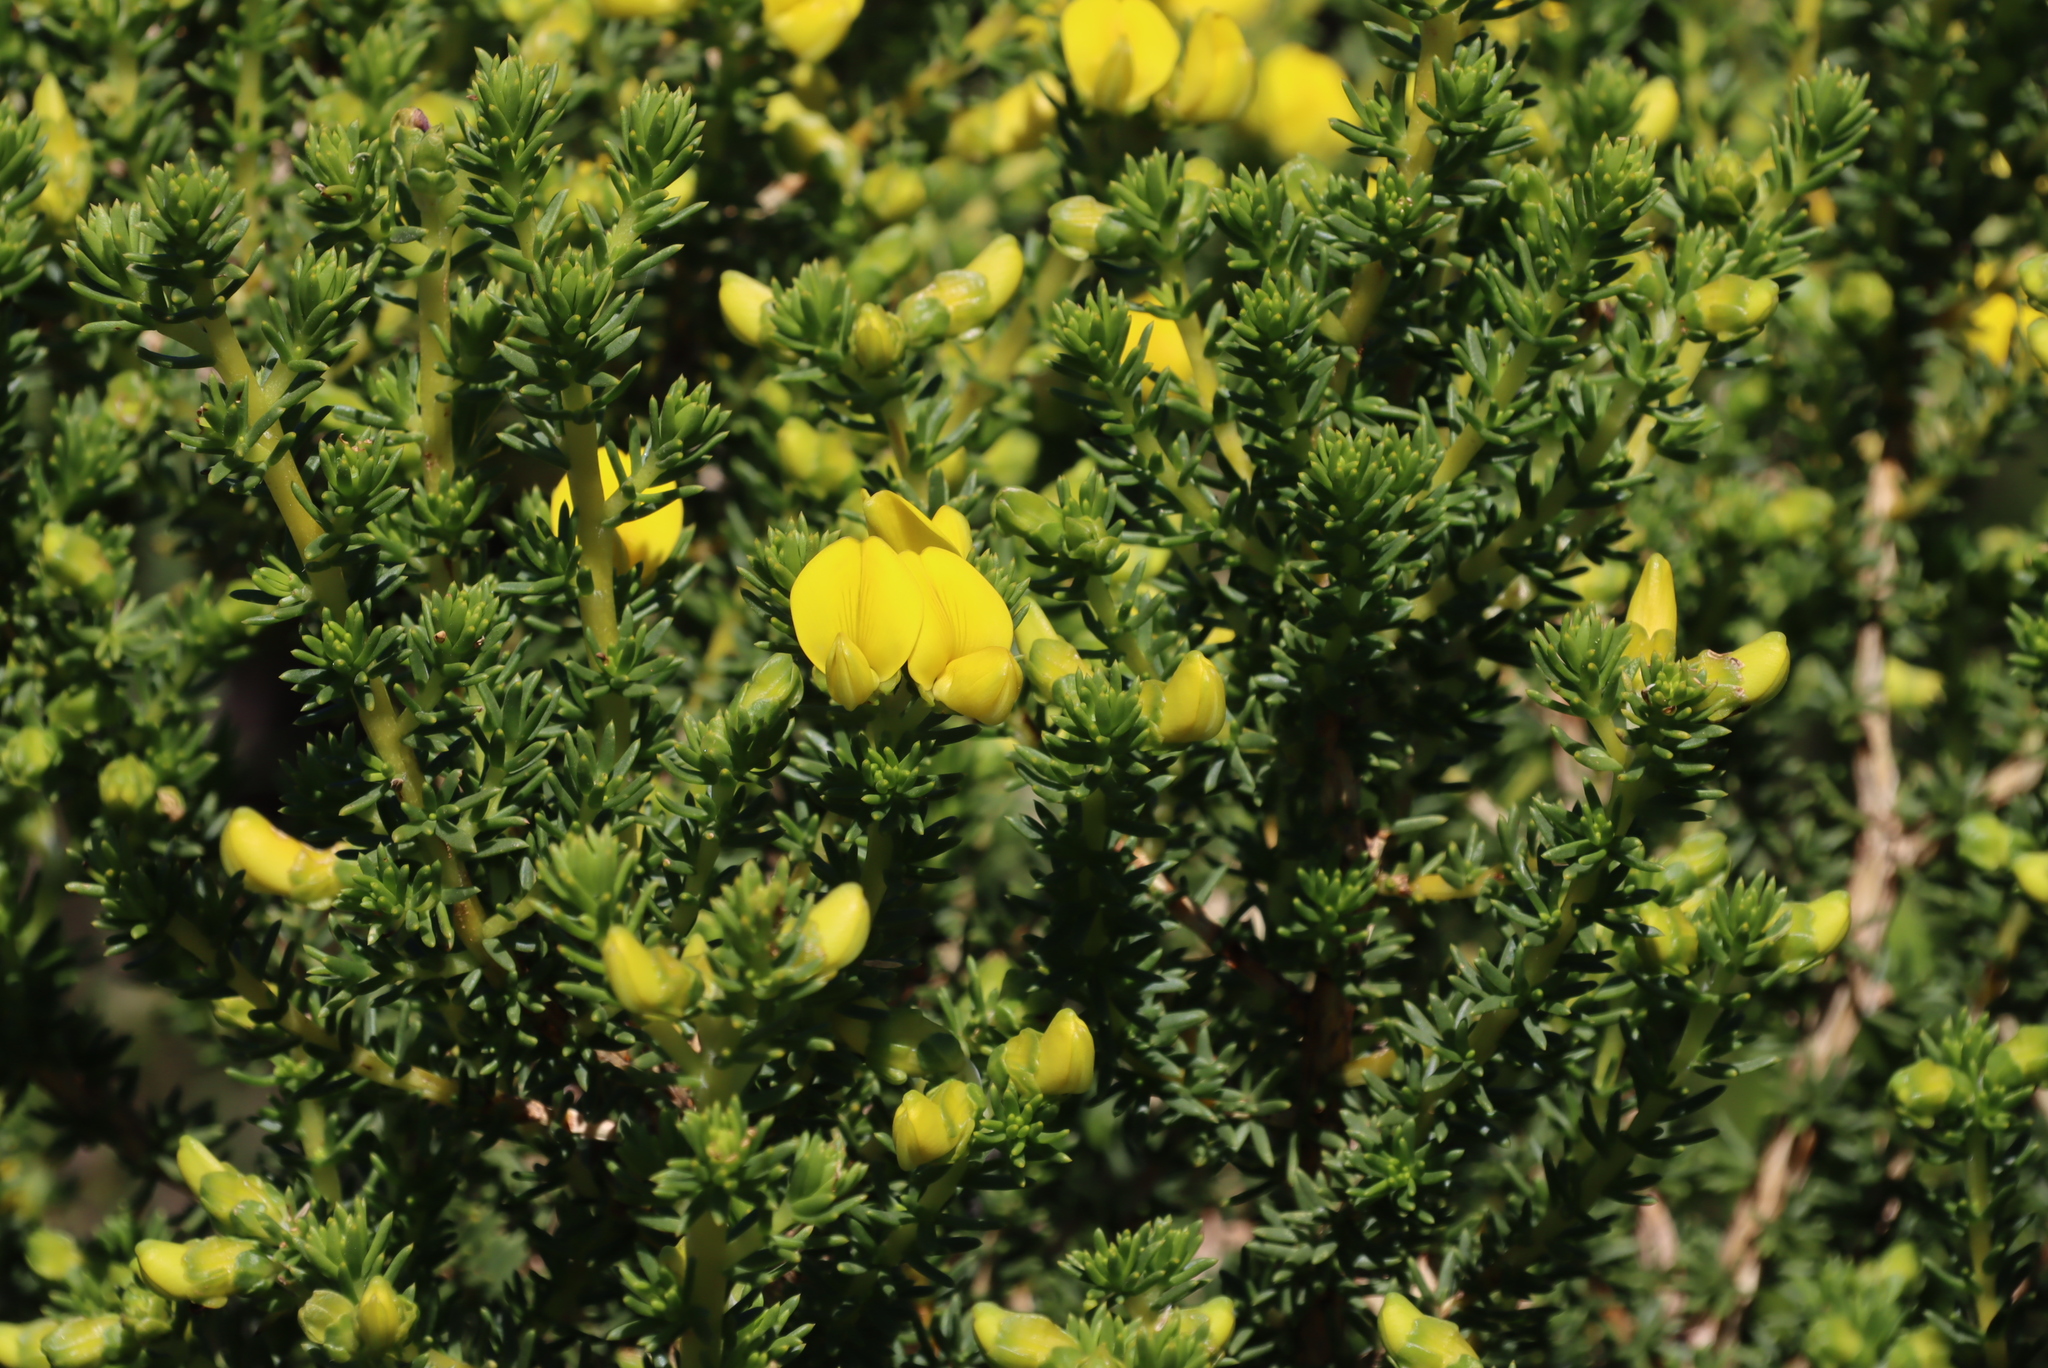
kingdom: Plantae
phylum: Tracheophyta
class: Magnoliopsida
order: Fabales
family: Fabaceae
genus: Aspalathus
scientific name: Aspalathus capensis
